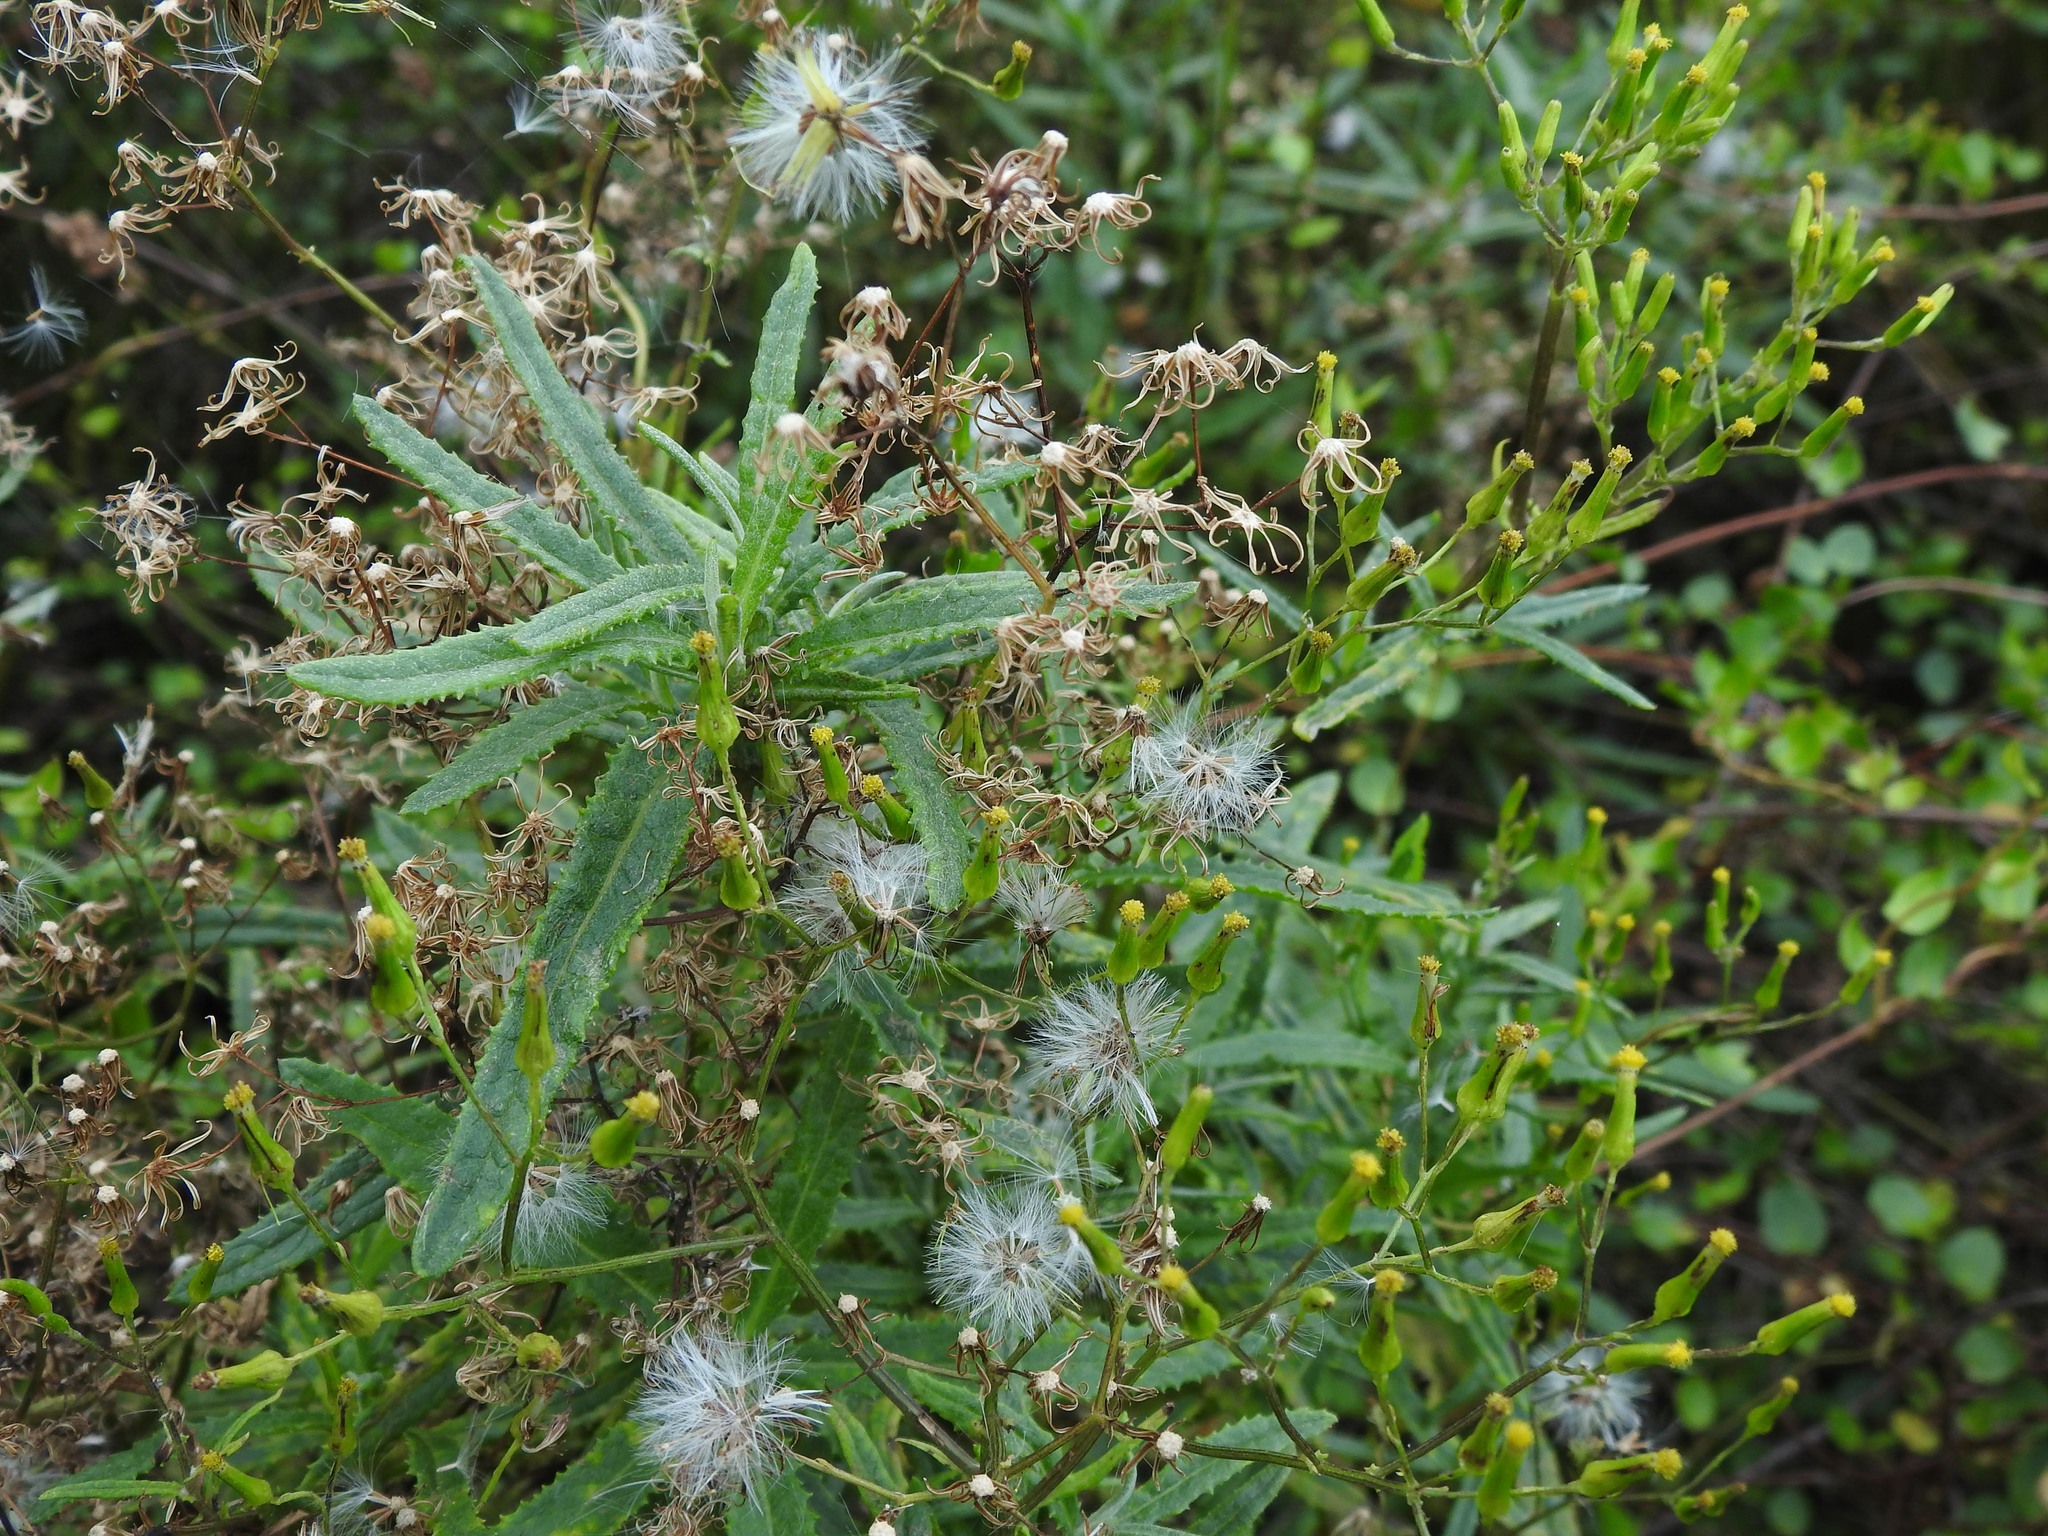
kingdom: Plantae
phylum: Tracheophyta
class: Magnoliopsida
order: Asterales
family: Asteraceae
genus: Senecio
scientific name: Senecio minimus
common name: Toothed fireweed
